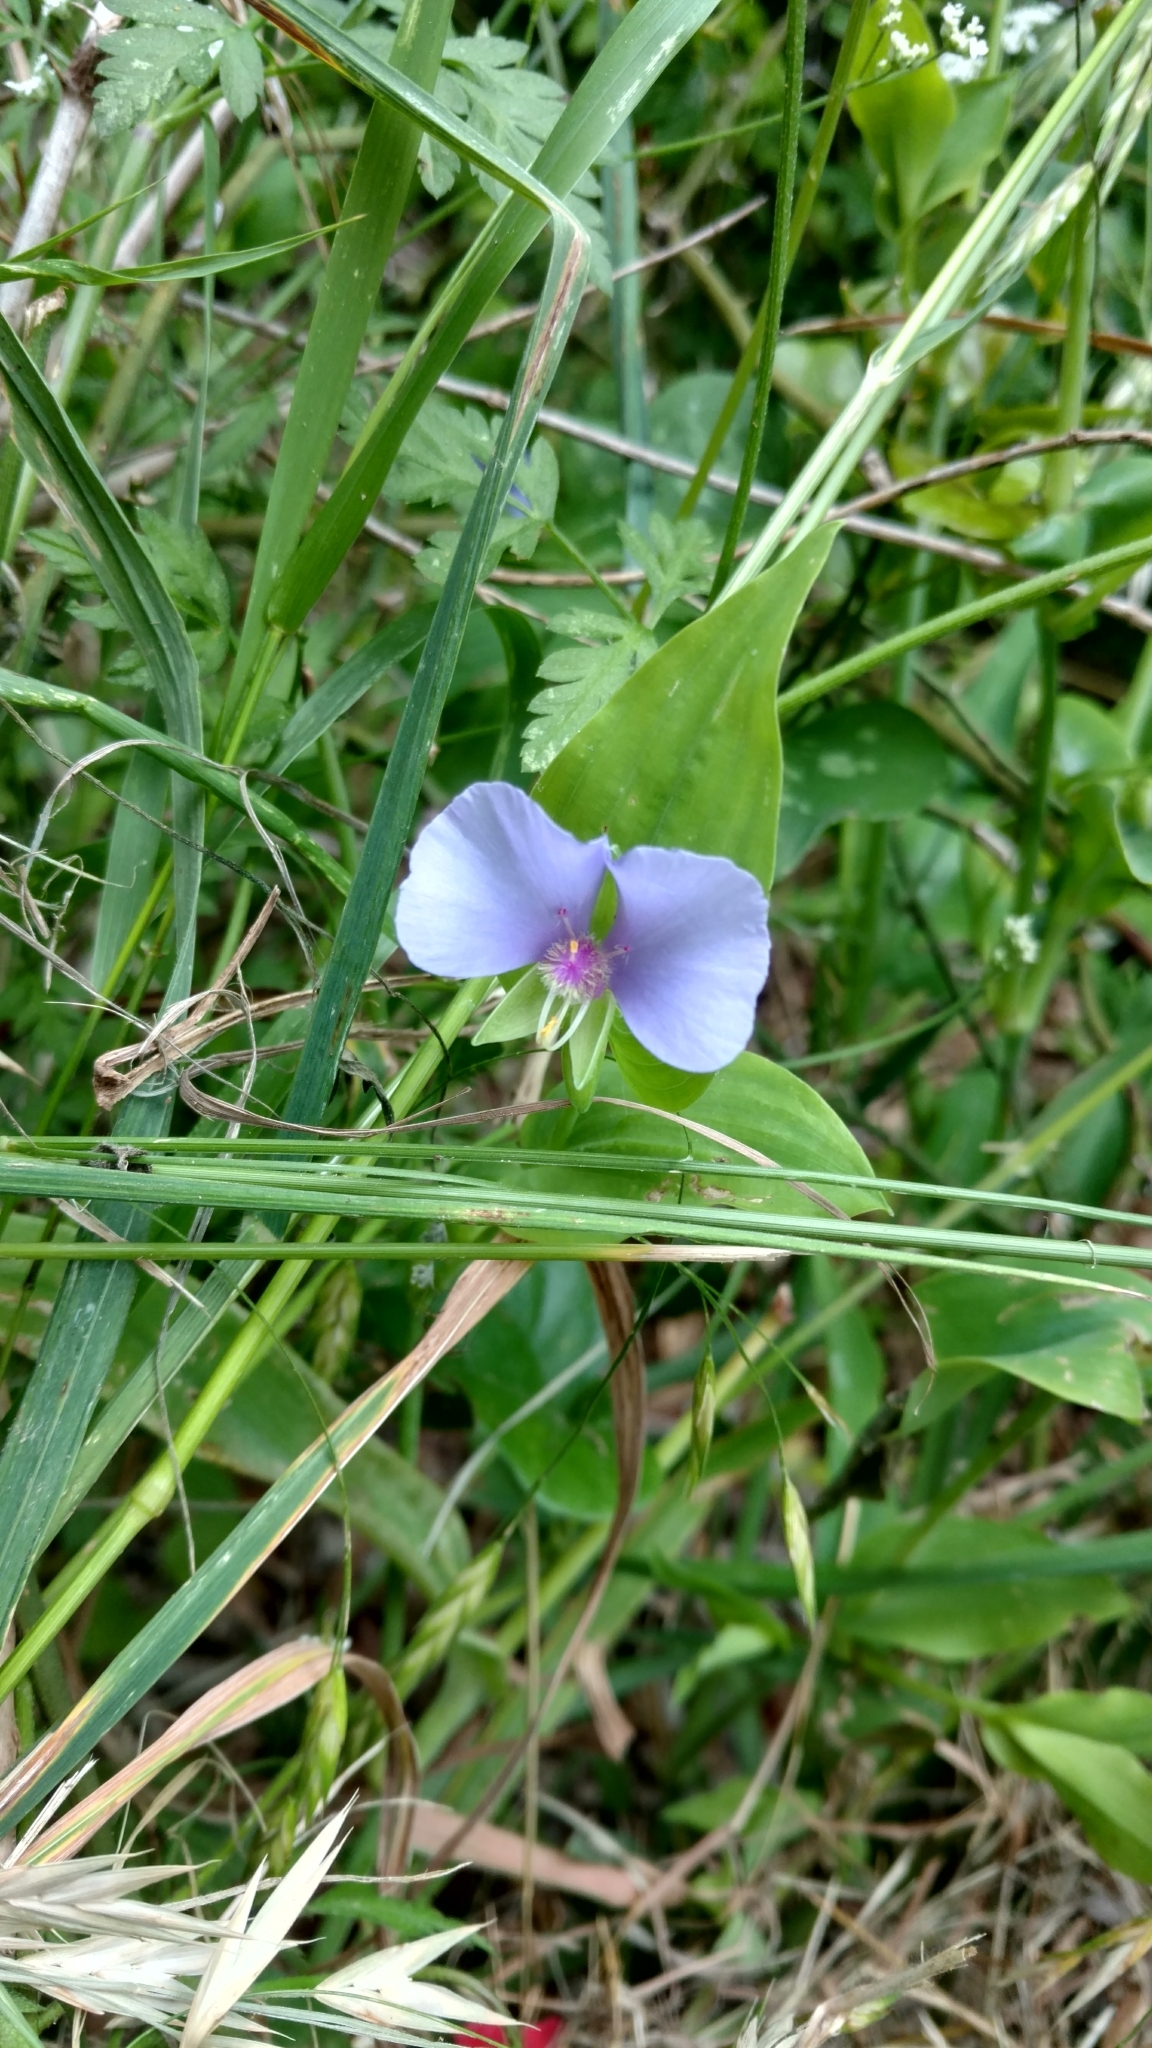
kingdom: Plantae
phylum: Tracheophyta
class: Liliopsida
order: Commelinales
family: Commelinaceae
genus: Tinantia
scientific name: Tinantia anomala
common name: False dayflower
